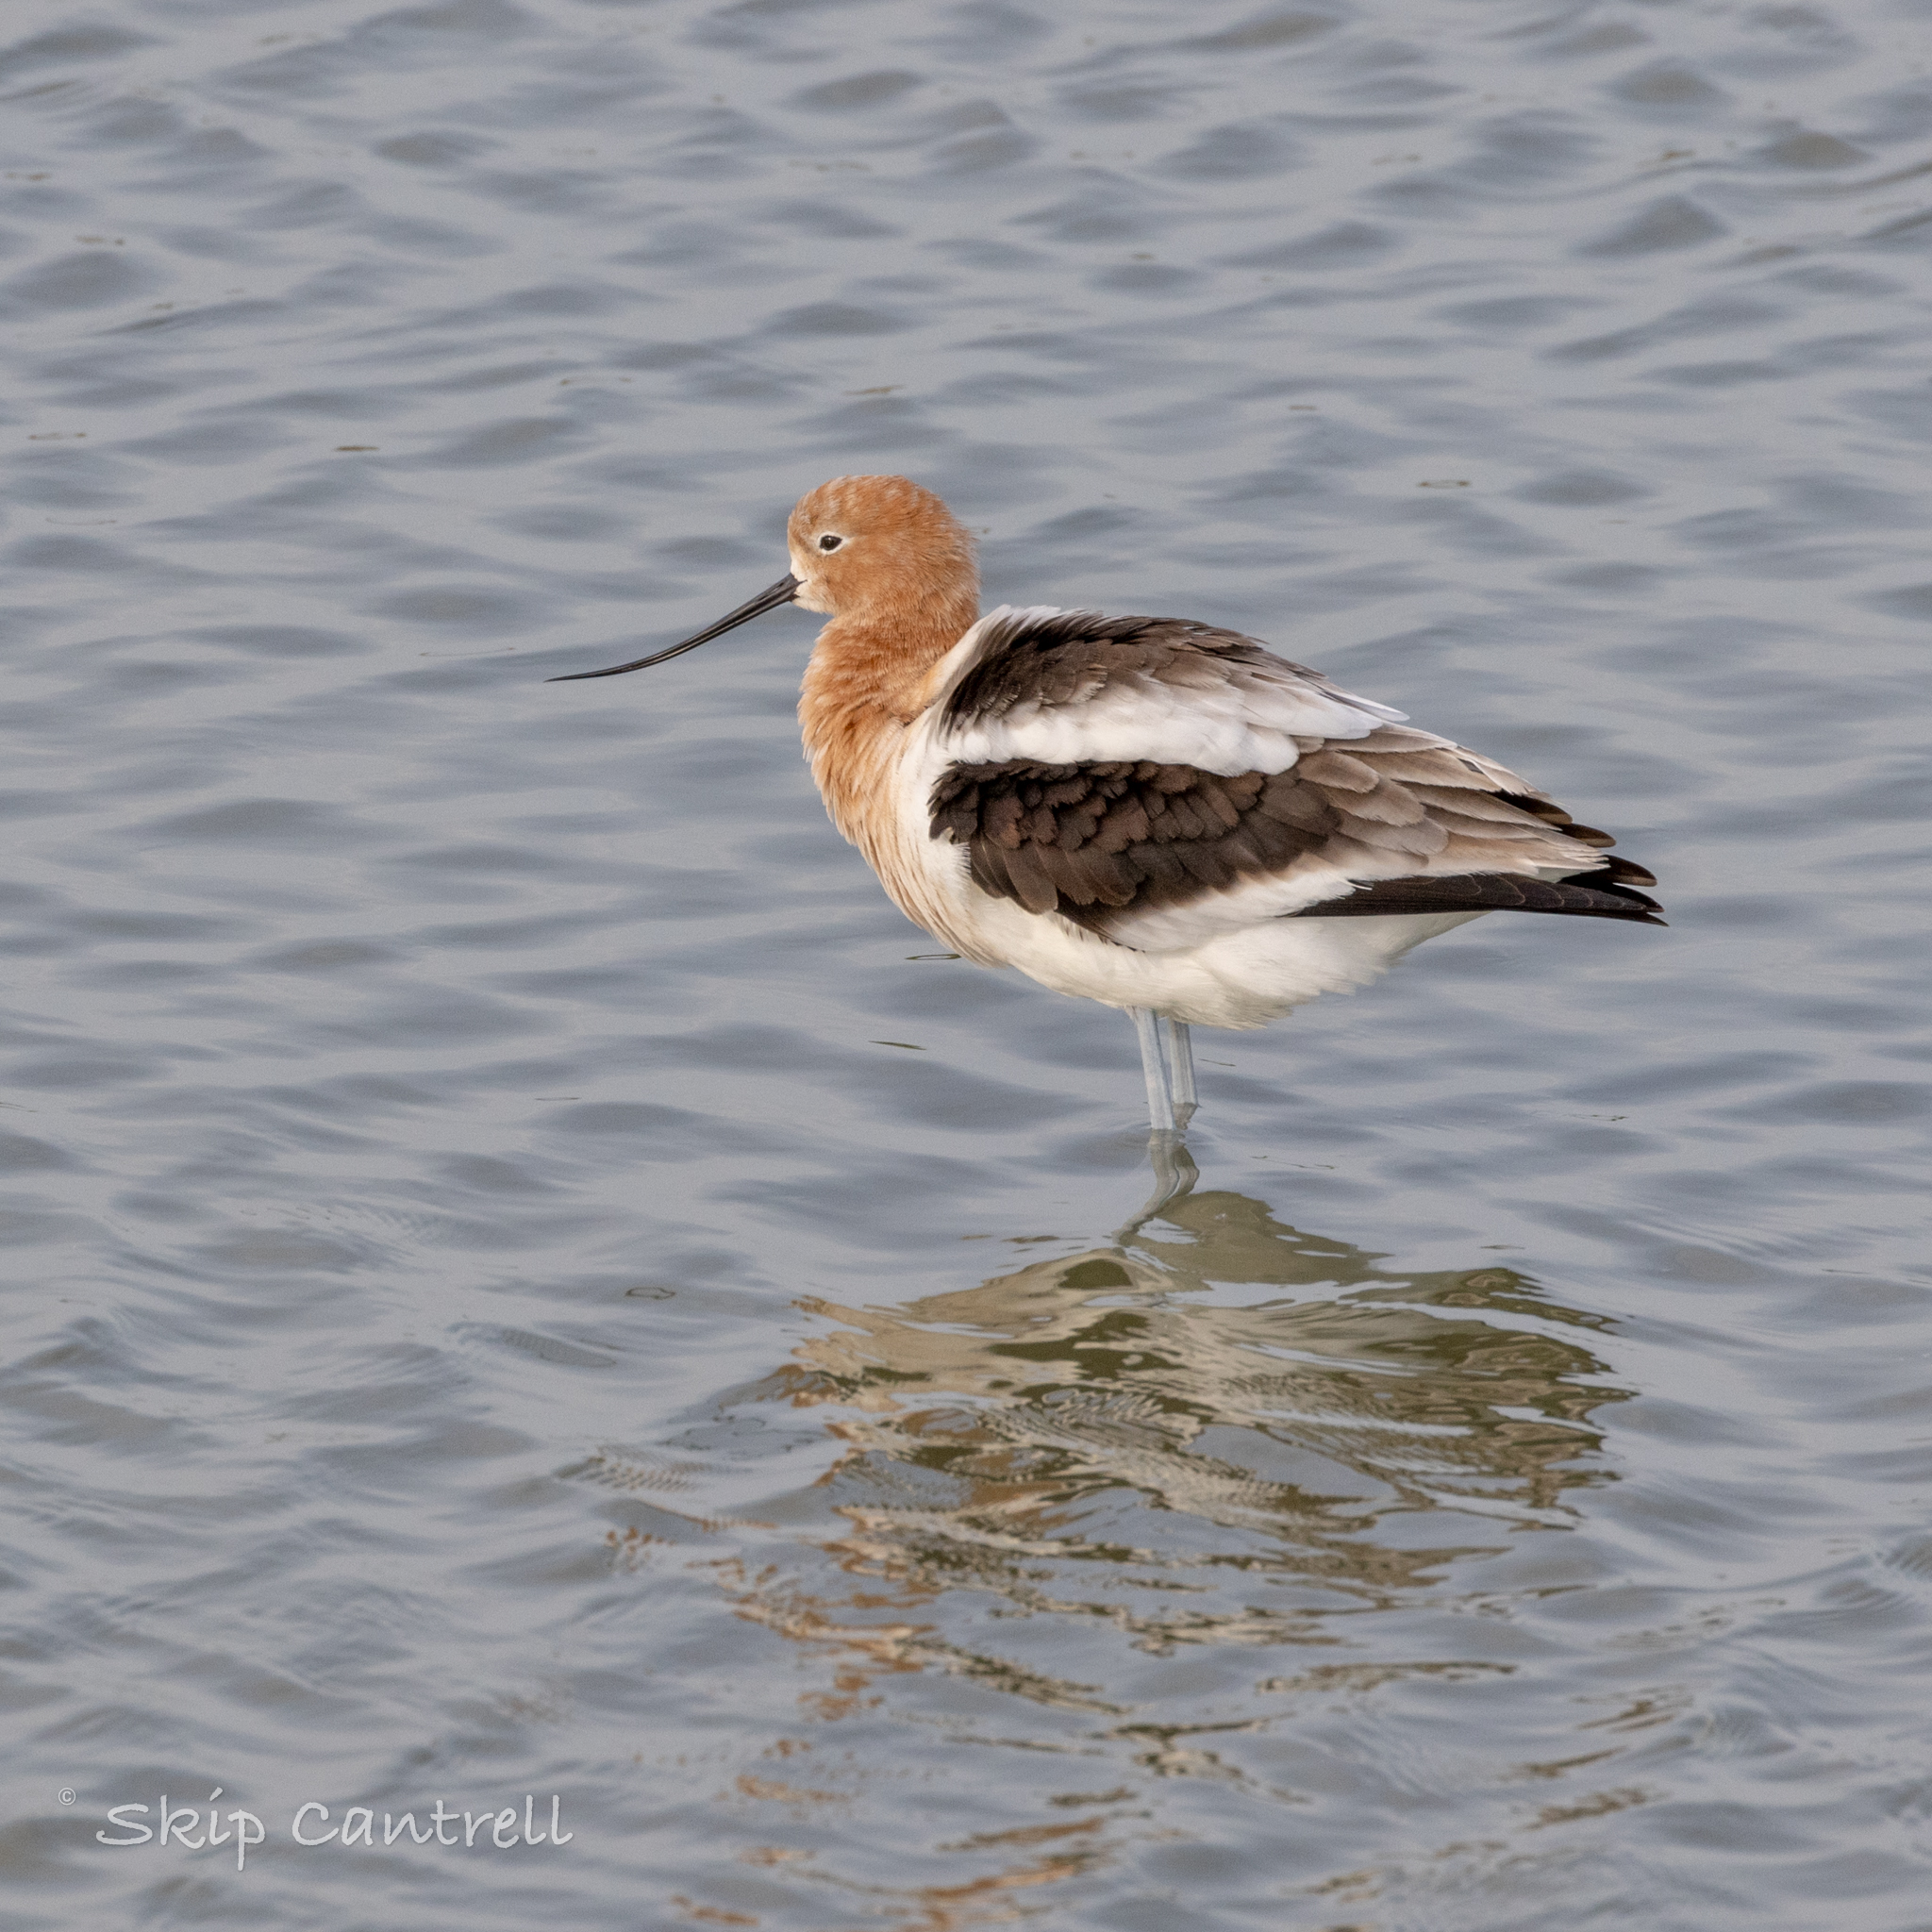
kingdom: Animalia
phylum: Chordata
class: Aves
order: Charadriiformes
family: Recurvirostridae
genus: Recurvirostra
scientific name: Recurvirostra americana
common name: American avocet
